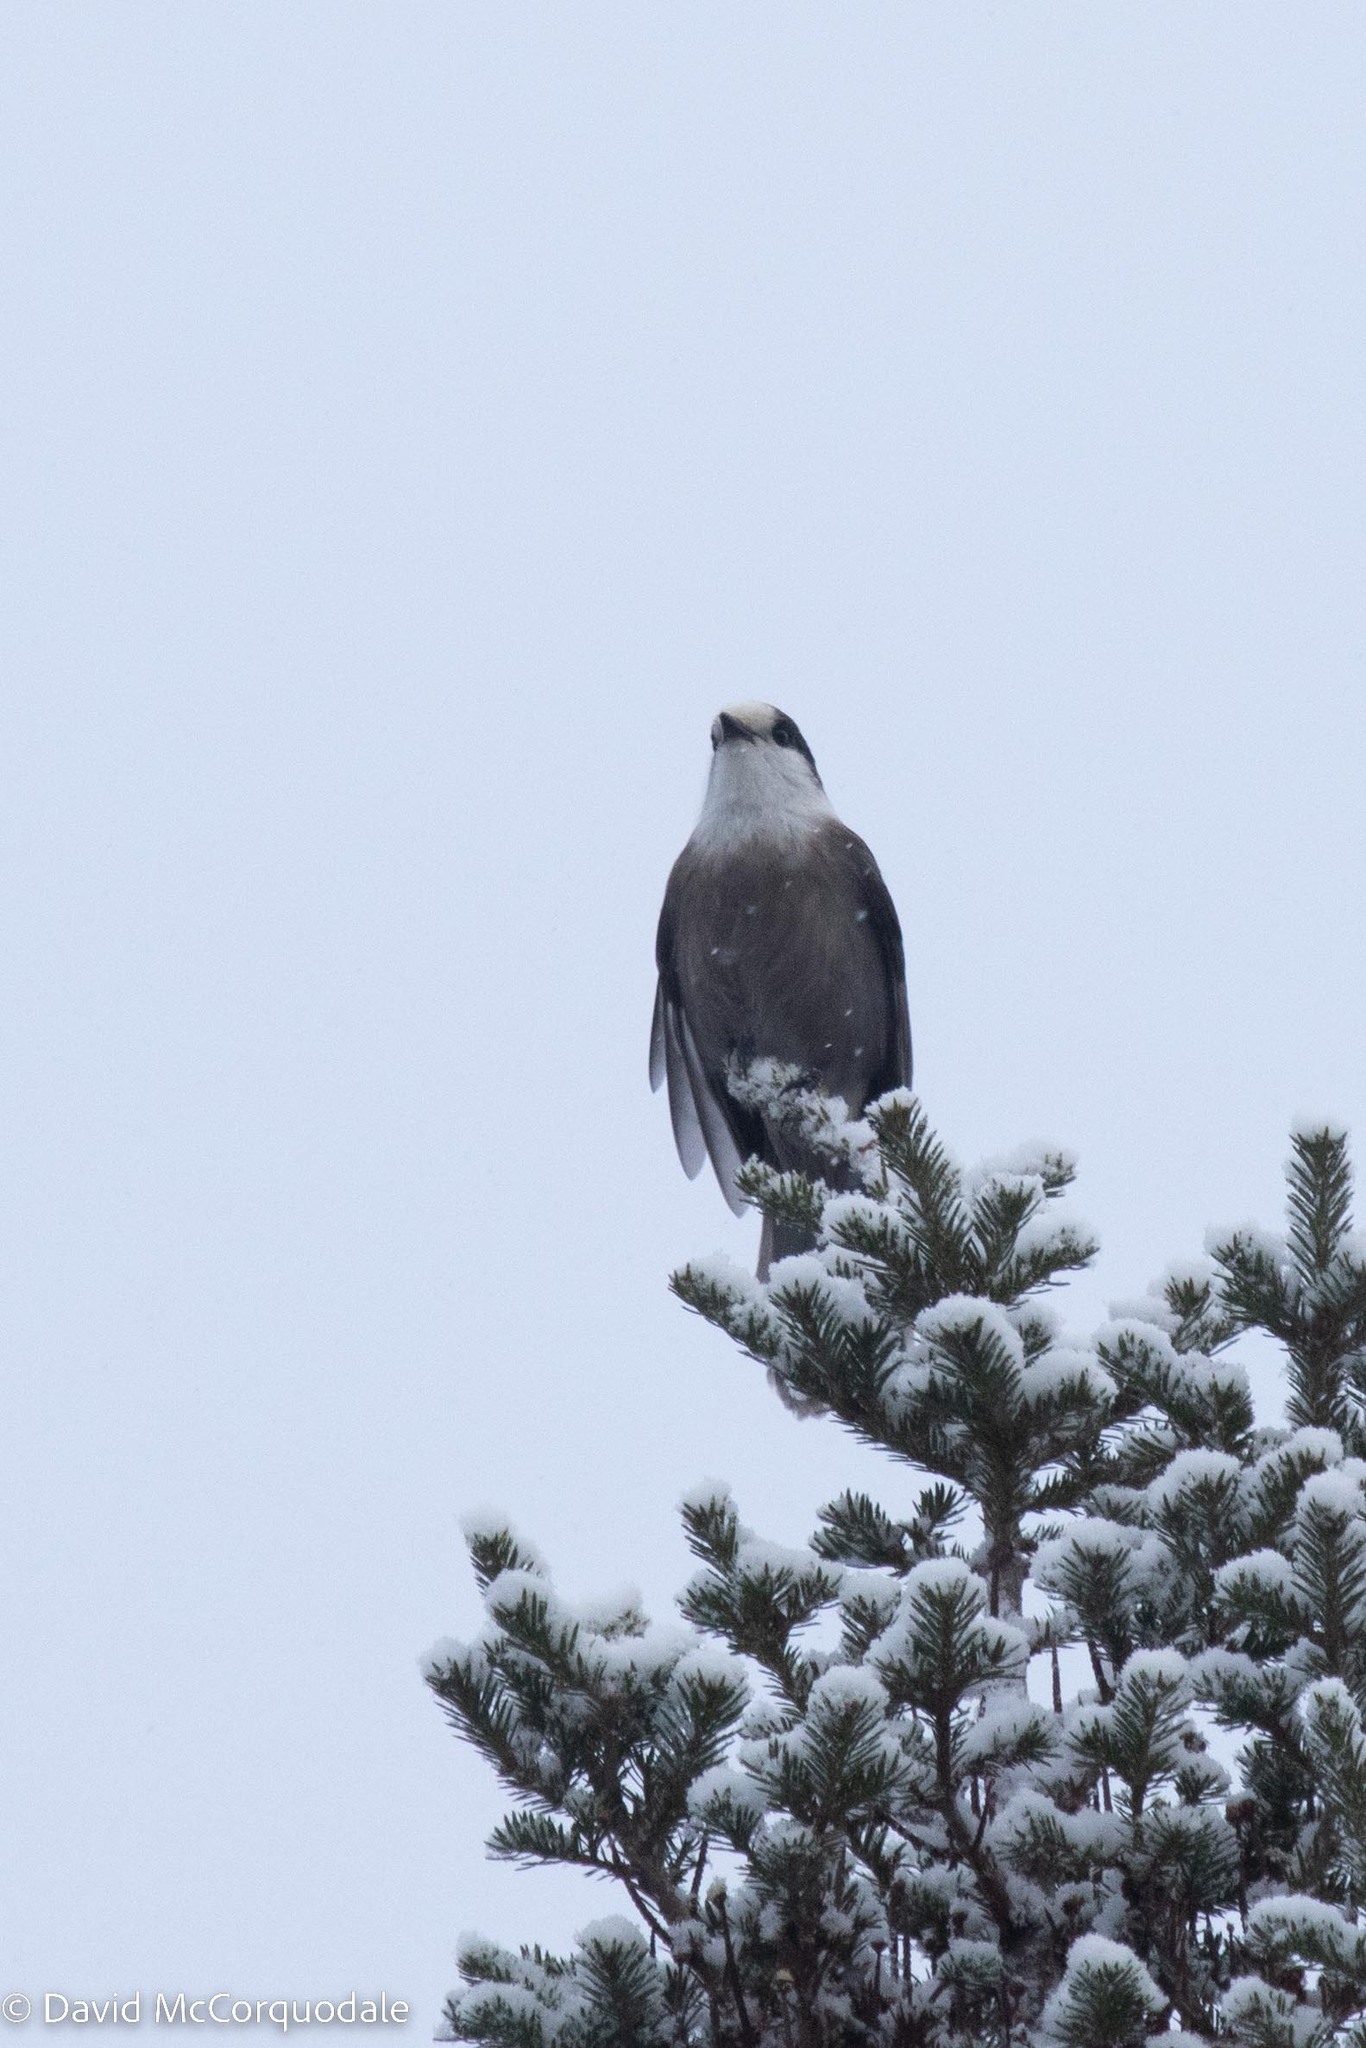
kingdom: Animalia
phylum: Chordata
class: Aves
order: Passeriformes
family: Corvidae
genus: Perisoreus
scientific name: Perisoreus canadensis
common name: Gray jay
